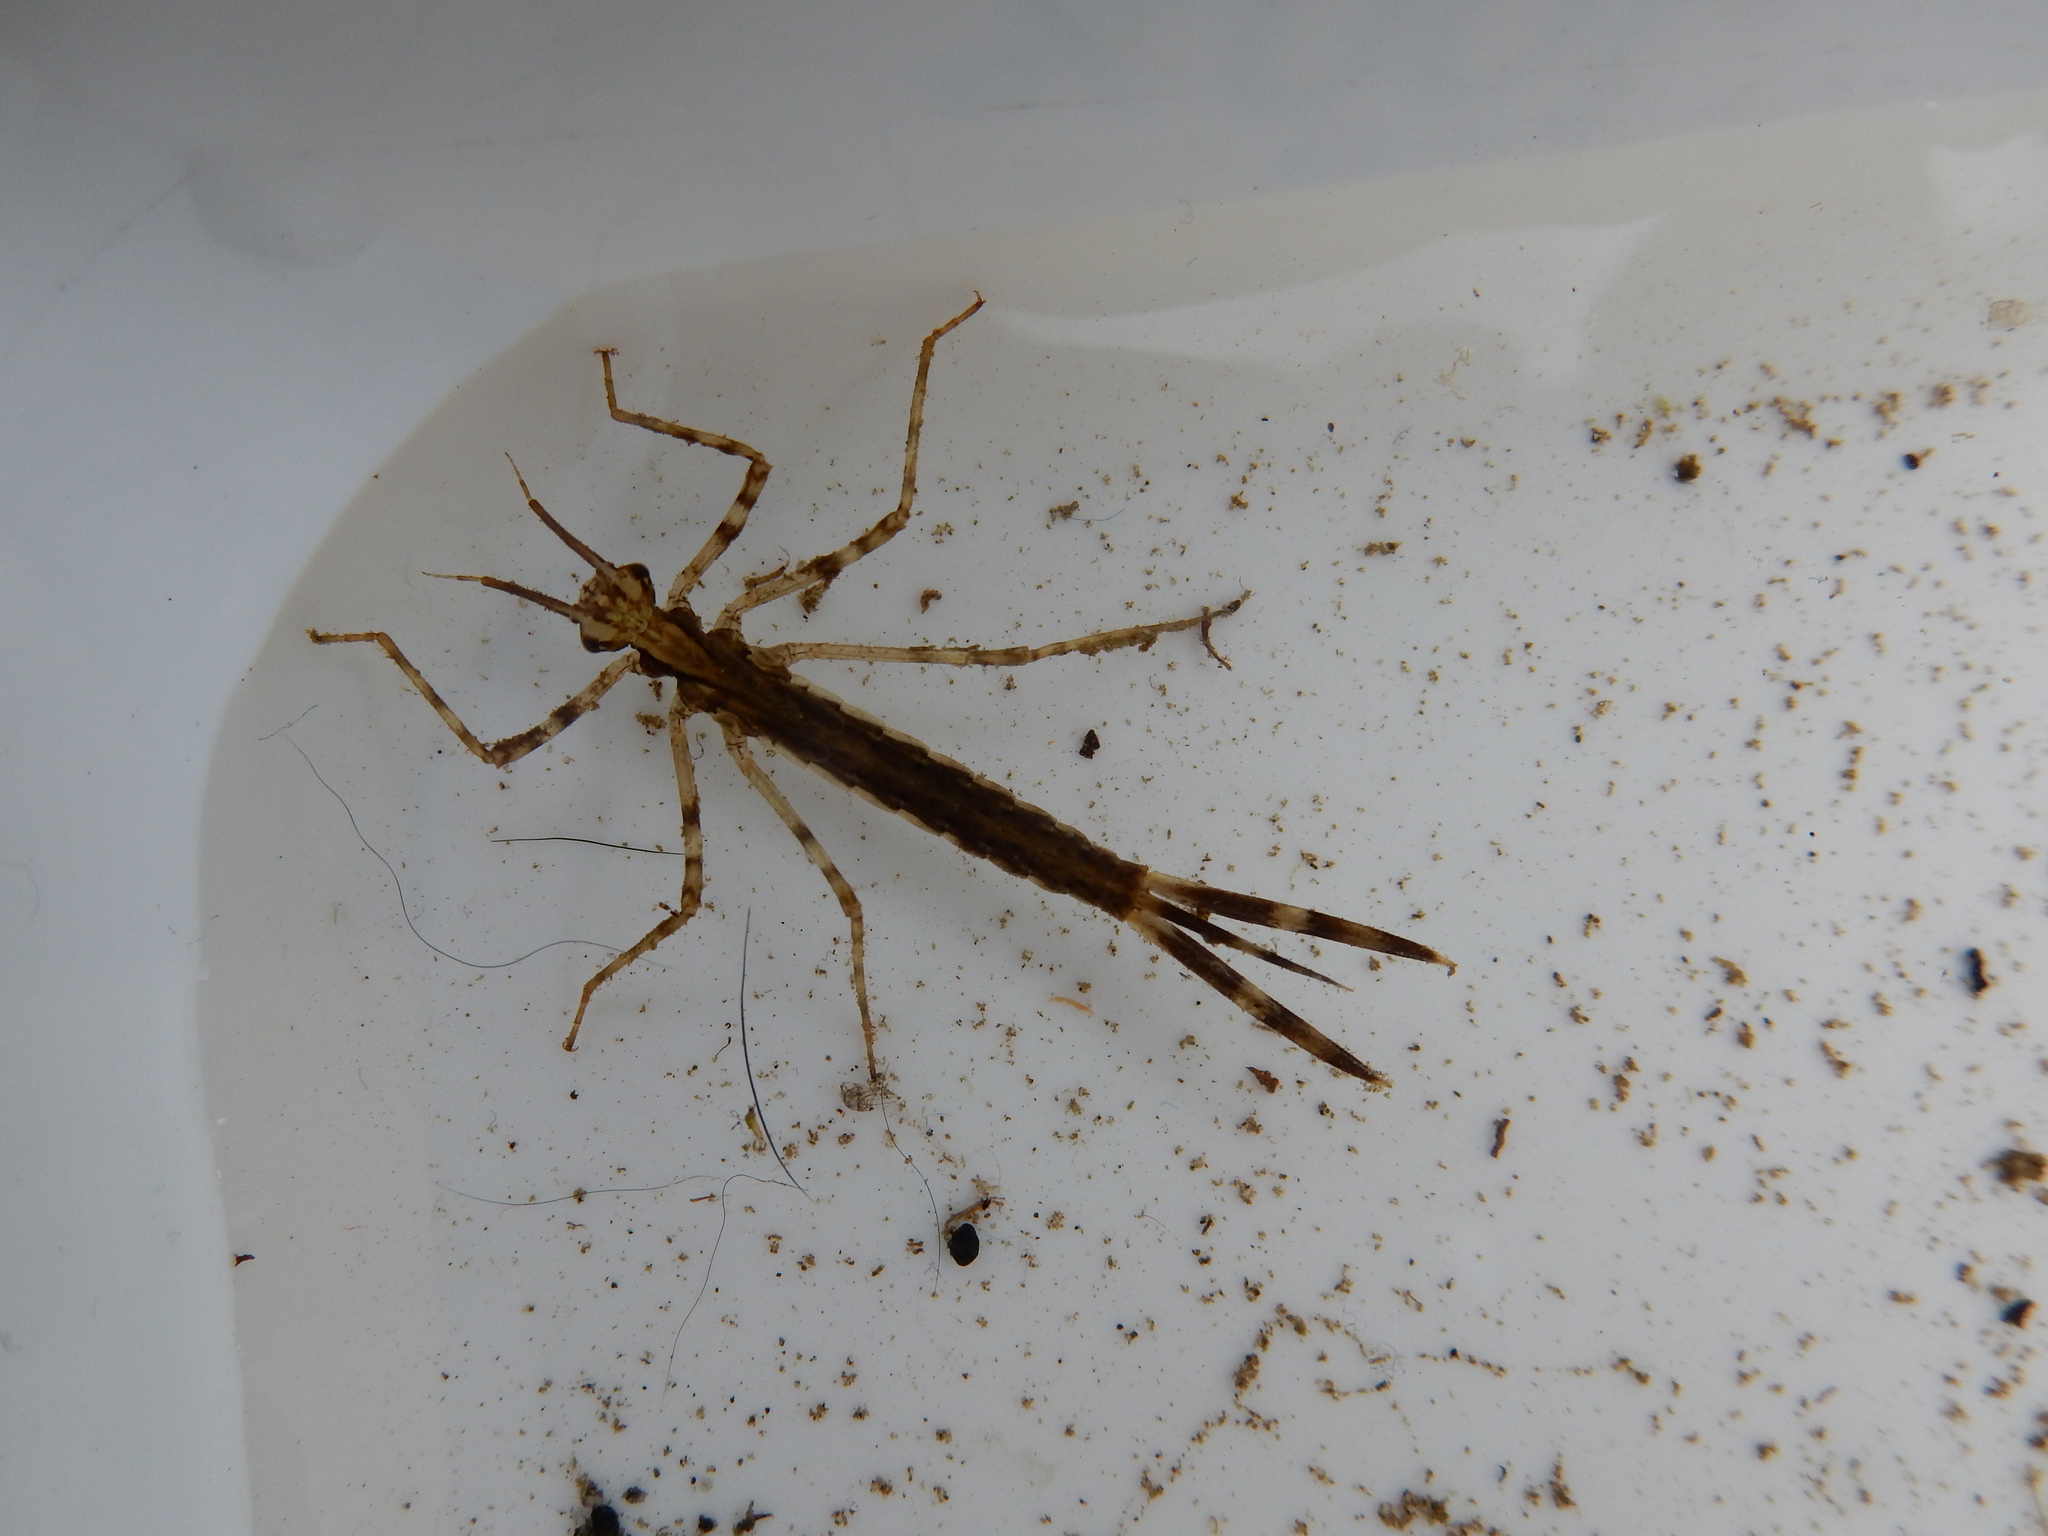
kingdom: Animalia
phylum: Arthropoda
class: Insecta
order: Odonata
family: Calopterygidae
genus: Calopteryx
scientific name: Calopteryx splendens
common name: Banded demoiselle
